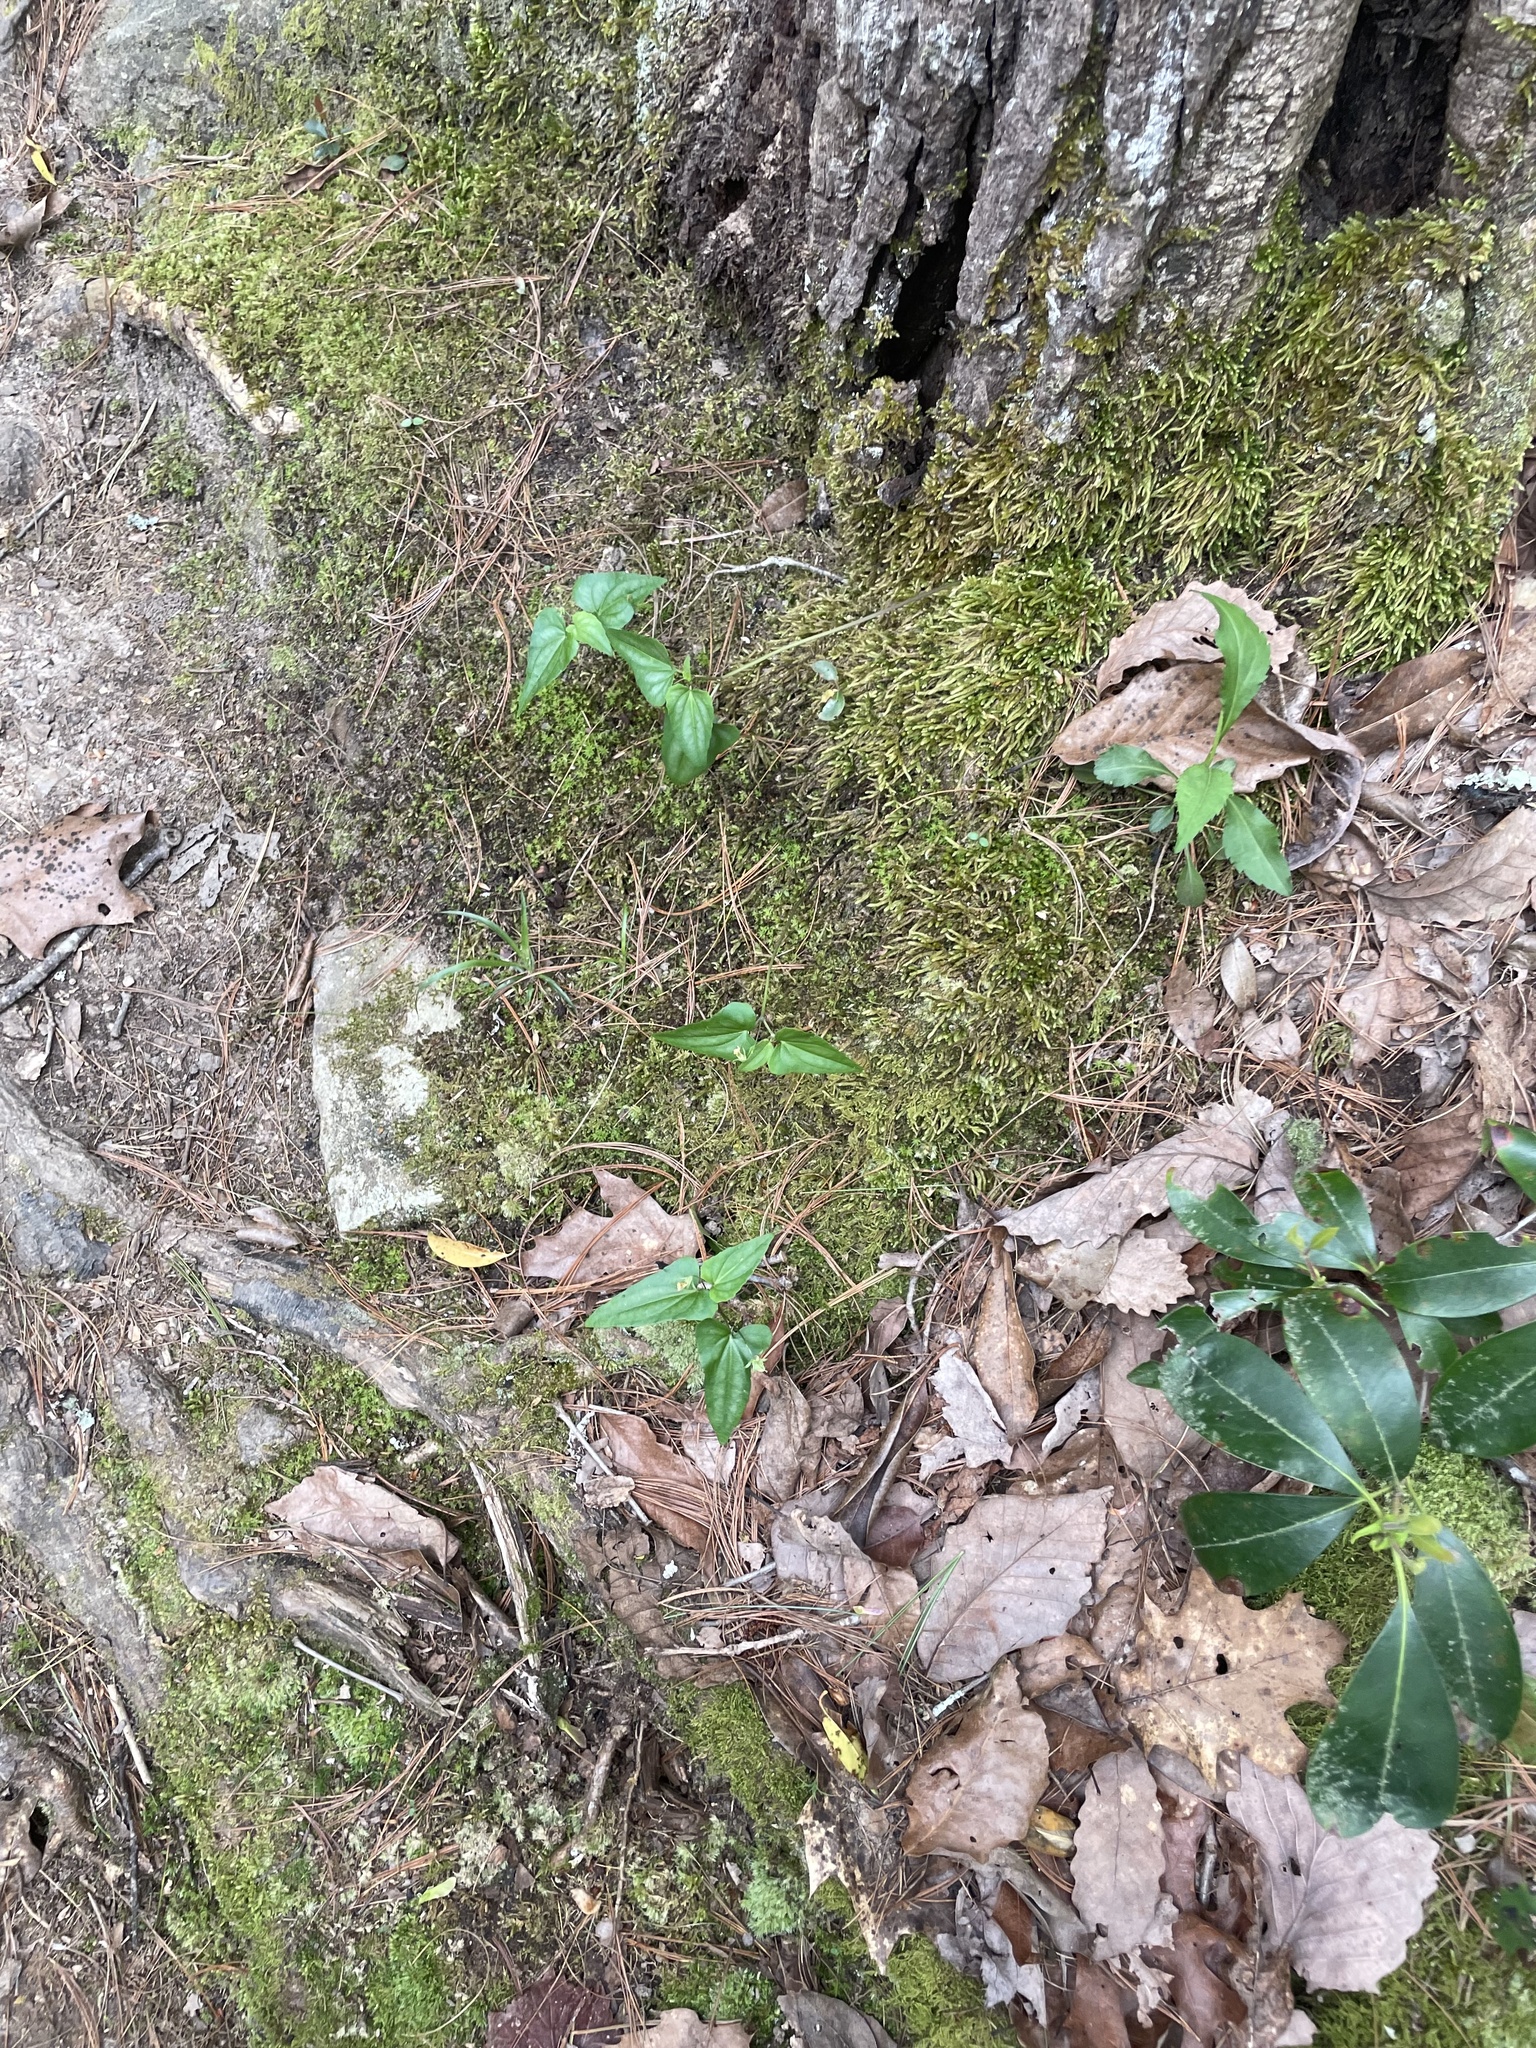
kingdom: Plantae
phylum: Tracheophyta
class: Magnoliopsida
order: Malpighiales
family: Violaceae
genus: Viola
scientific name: Viola hastata
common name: Spear-leaf violet
